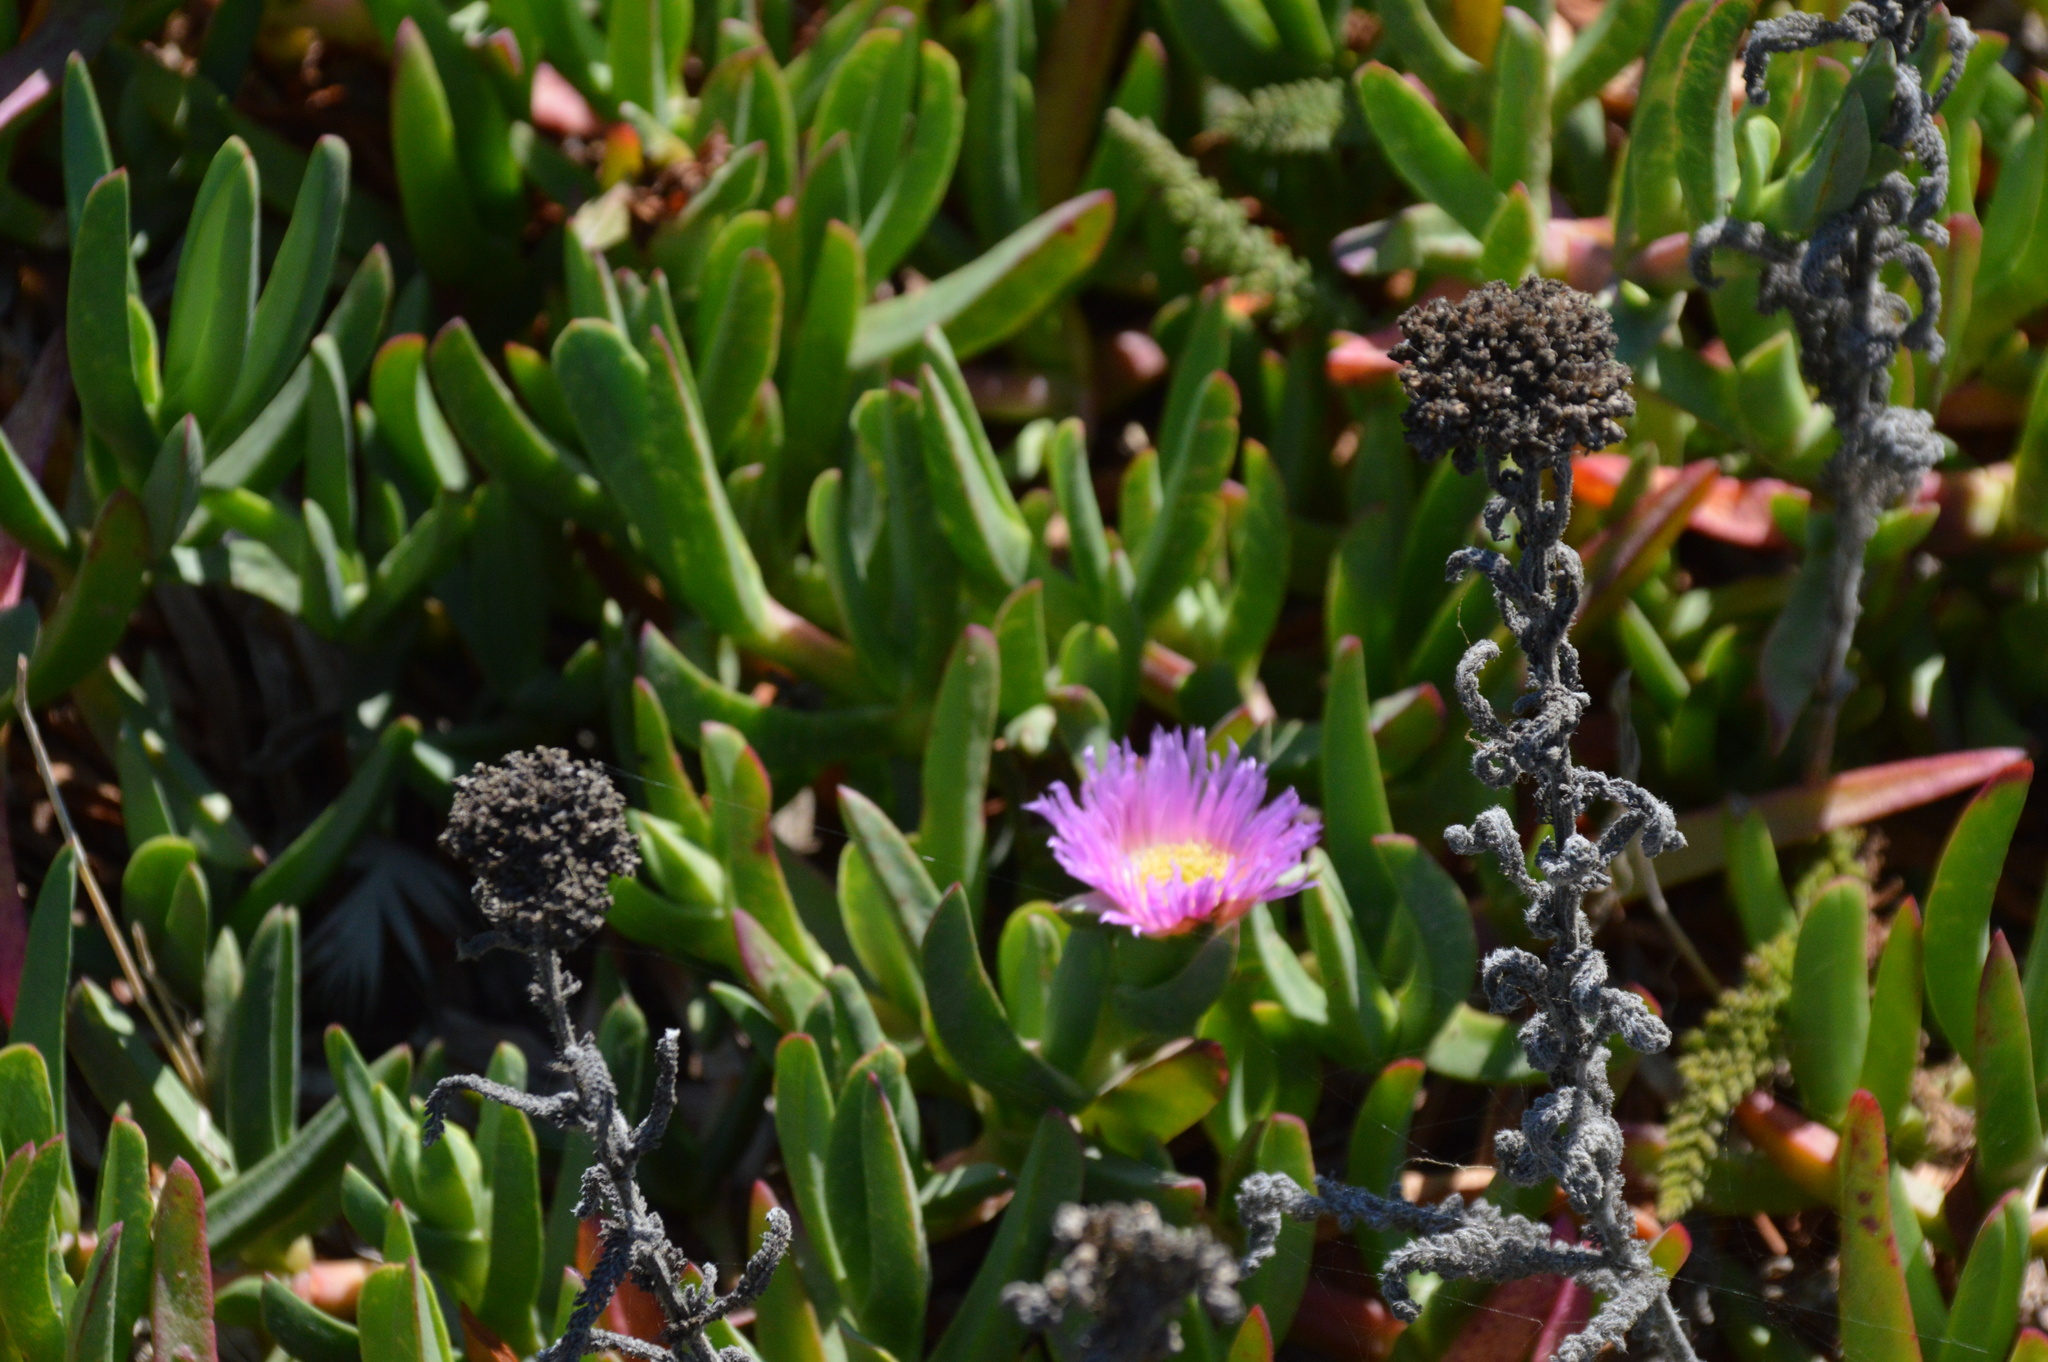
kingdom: Plantae
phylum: Tracheophyta
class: Magnoliopsida
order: Caryophyllales
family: Aizoaceae
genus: Carpobrotus
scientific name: Carpobrotus chilensis
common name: Sea fig
